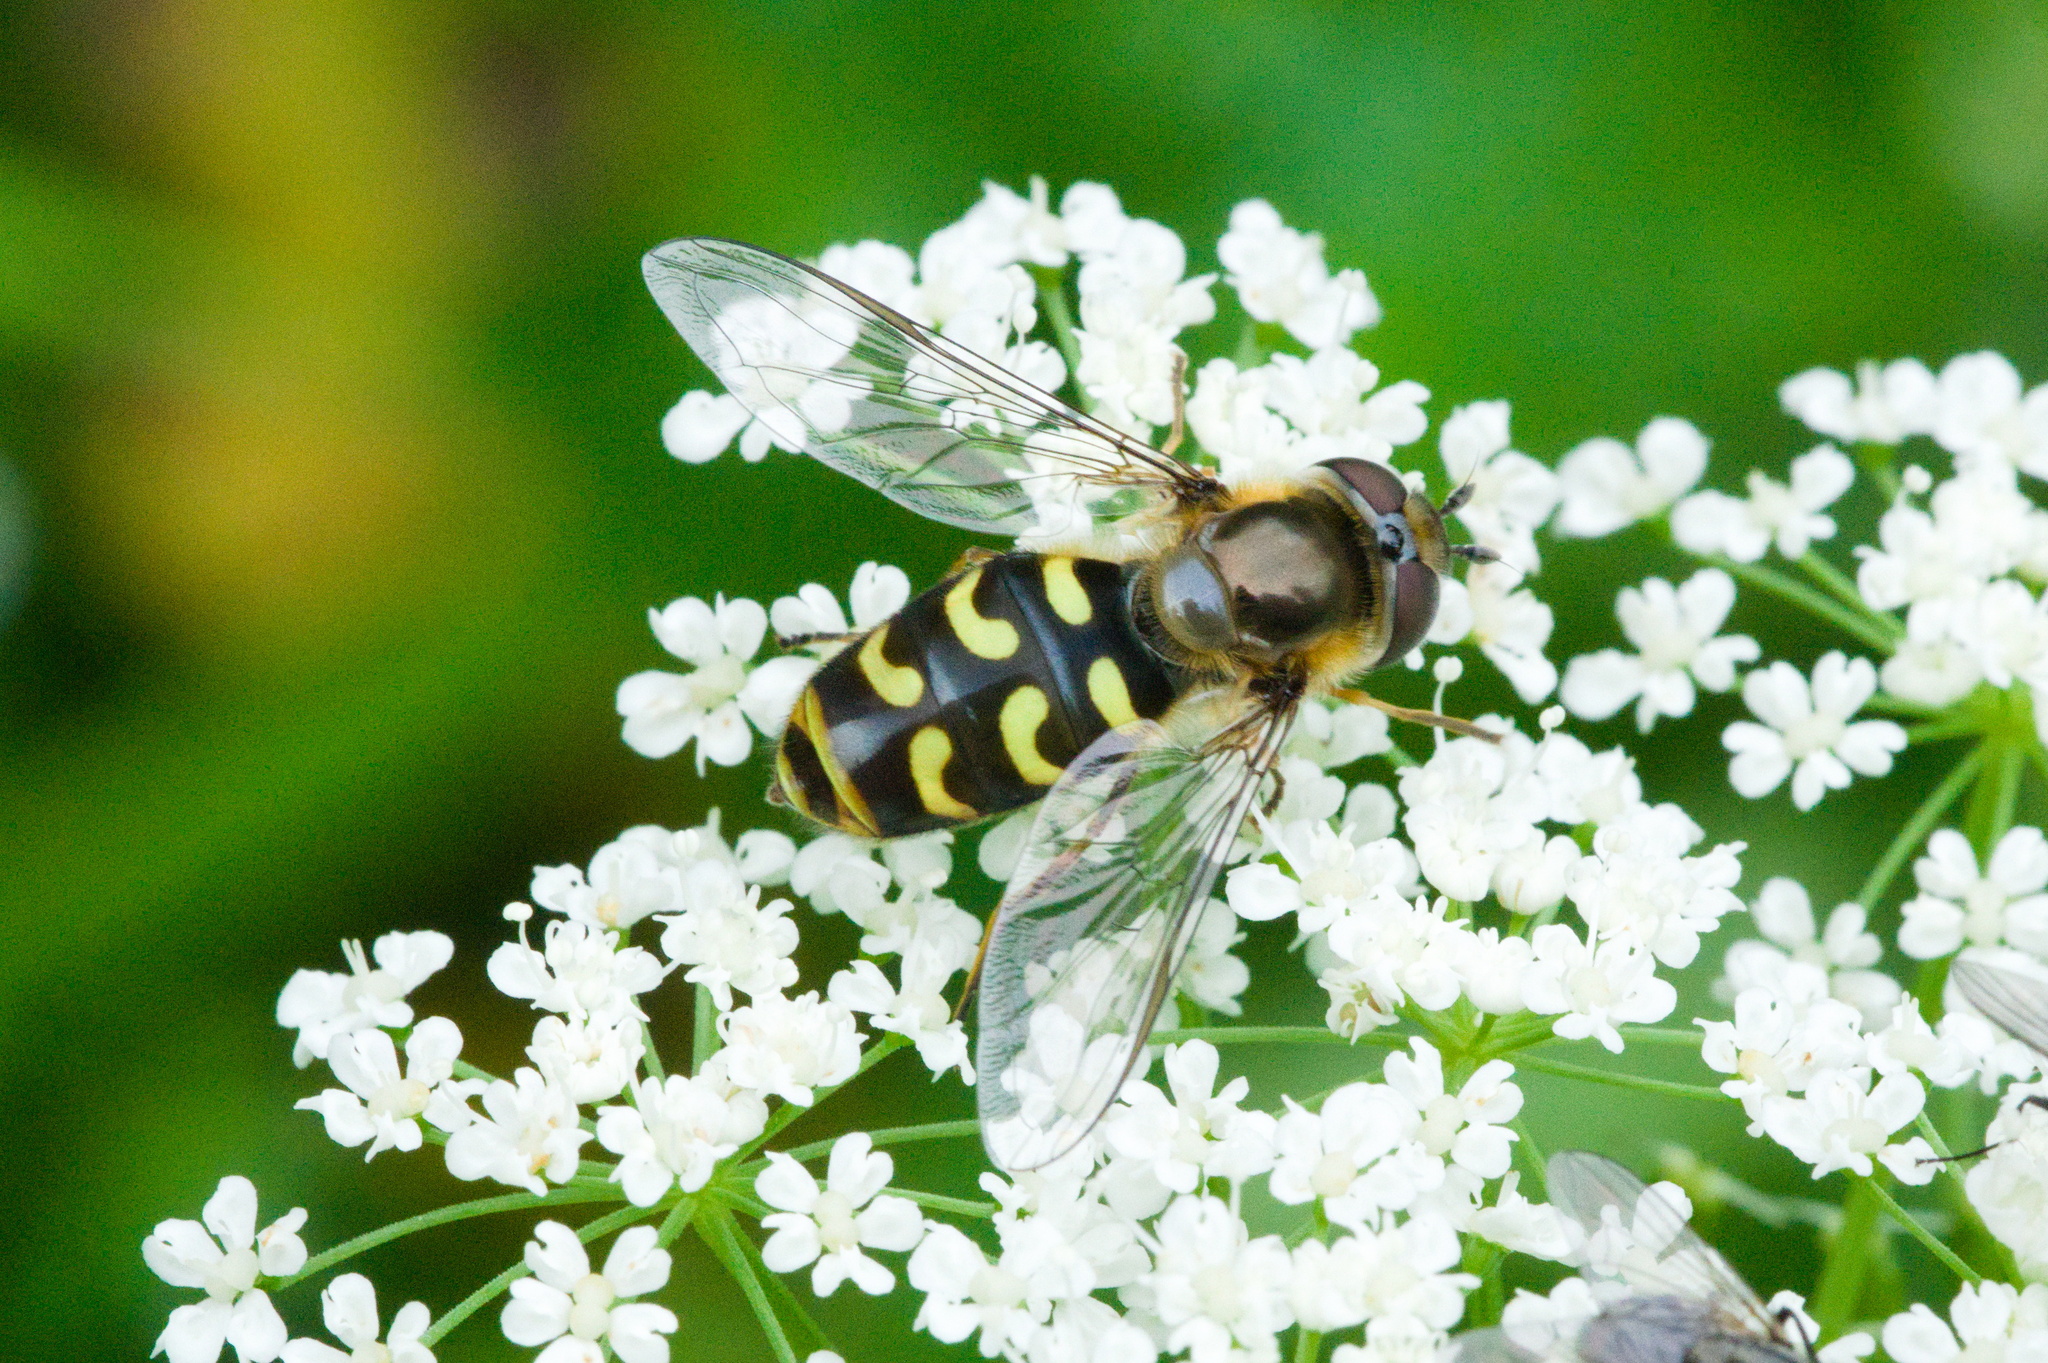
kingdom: Animalia
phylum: Arthropoda
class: Insecta
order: Diptera
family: Syrphidae
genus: Scaeva
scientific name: Scaeva dignota
